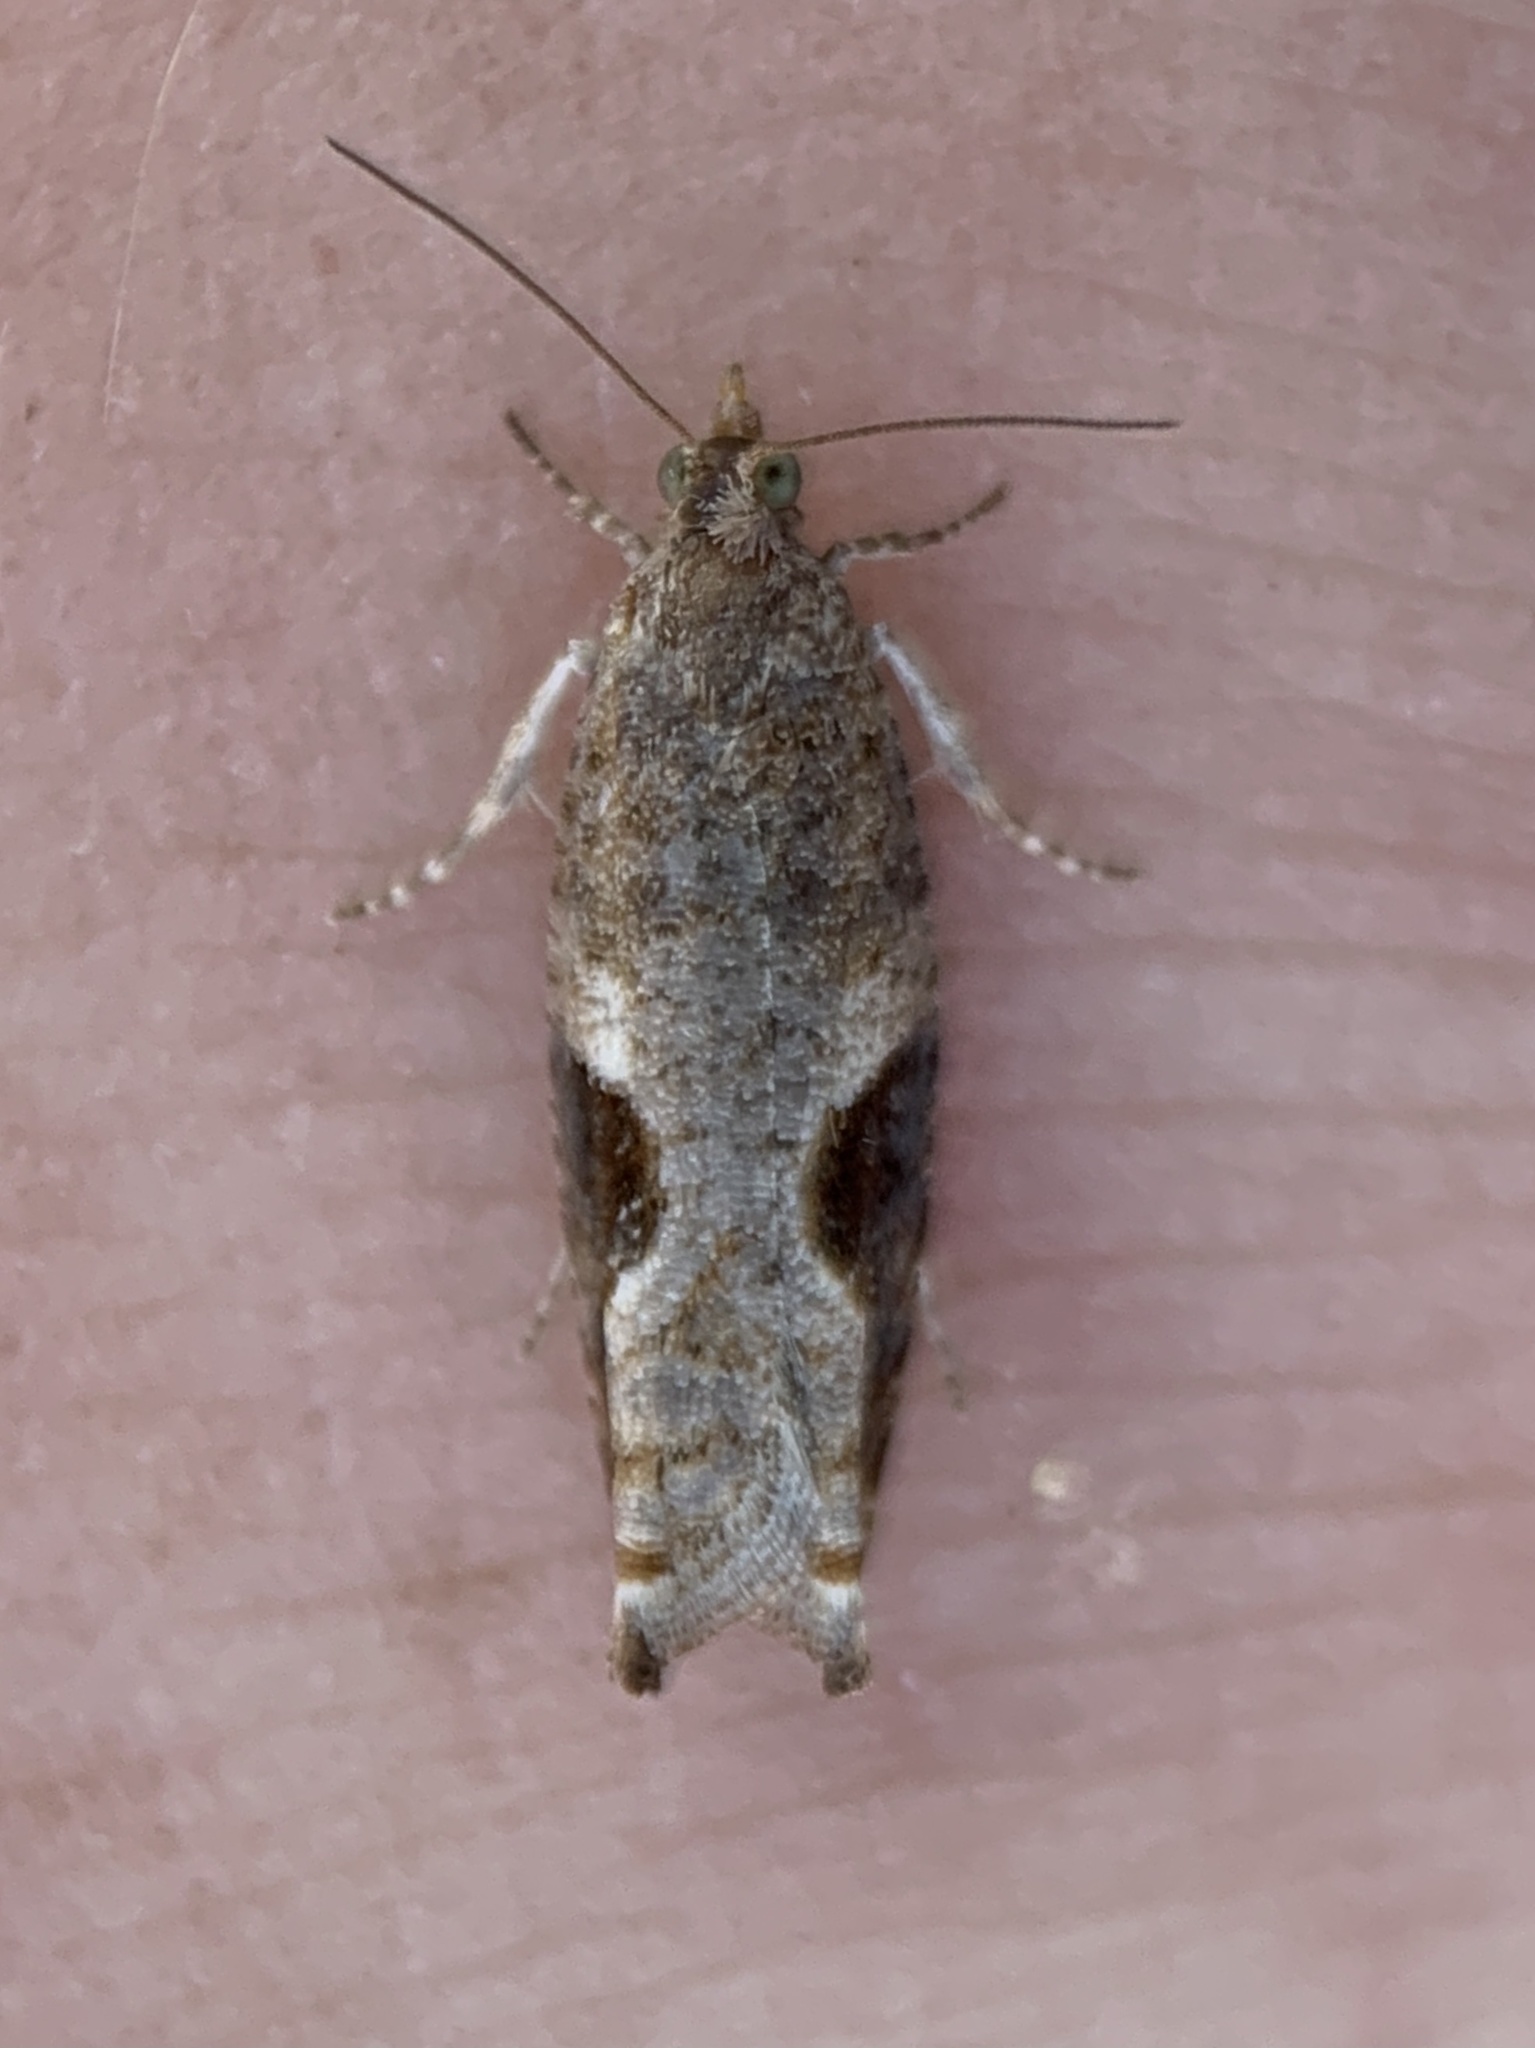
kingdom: Animalia
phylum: Arthropoda
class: Insecta
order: Lepidoptera
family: Tortricidae
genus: Pseudexentera
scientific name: Pseudexentera virginiana
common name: Virginia pseudexentera moth
